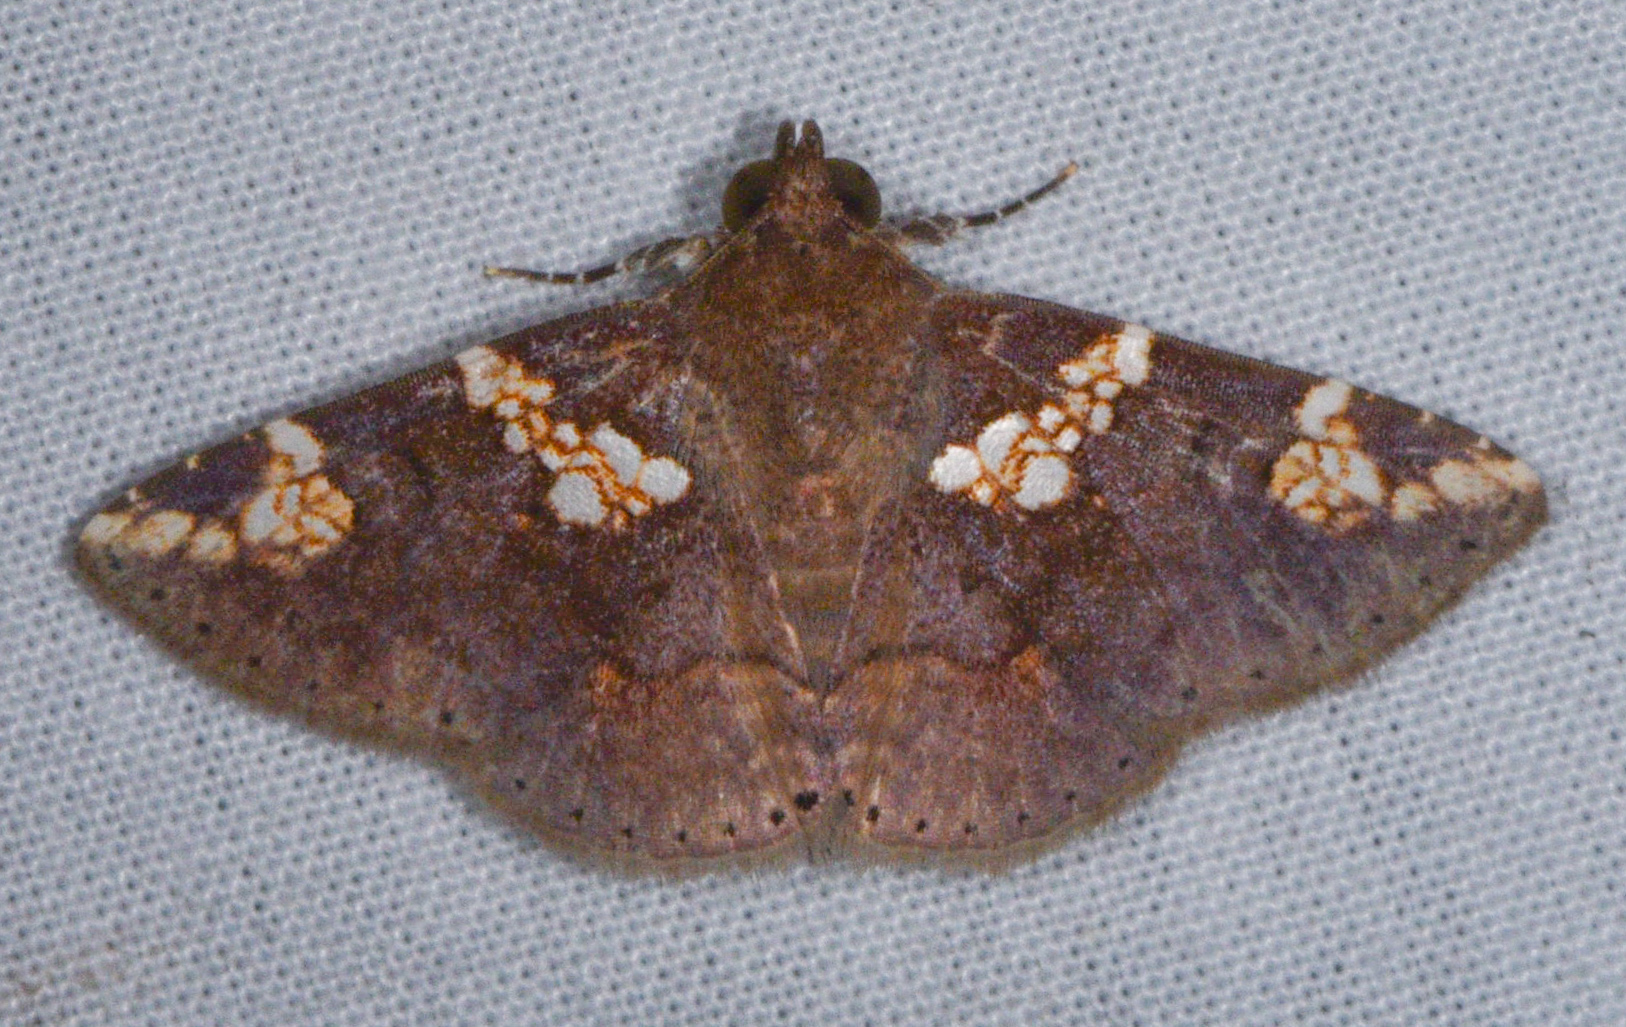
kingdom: Animalia
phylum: Arthropoda
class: Insecta
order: Lepidoptera
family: Erebidae
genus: Antiblemma
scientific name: Antiblemma perornata
